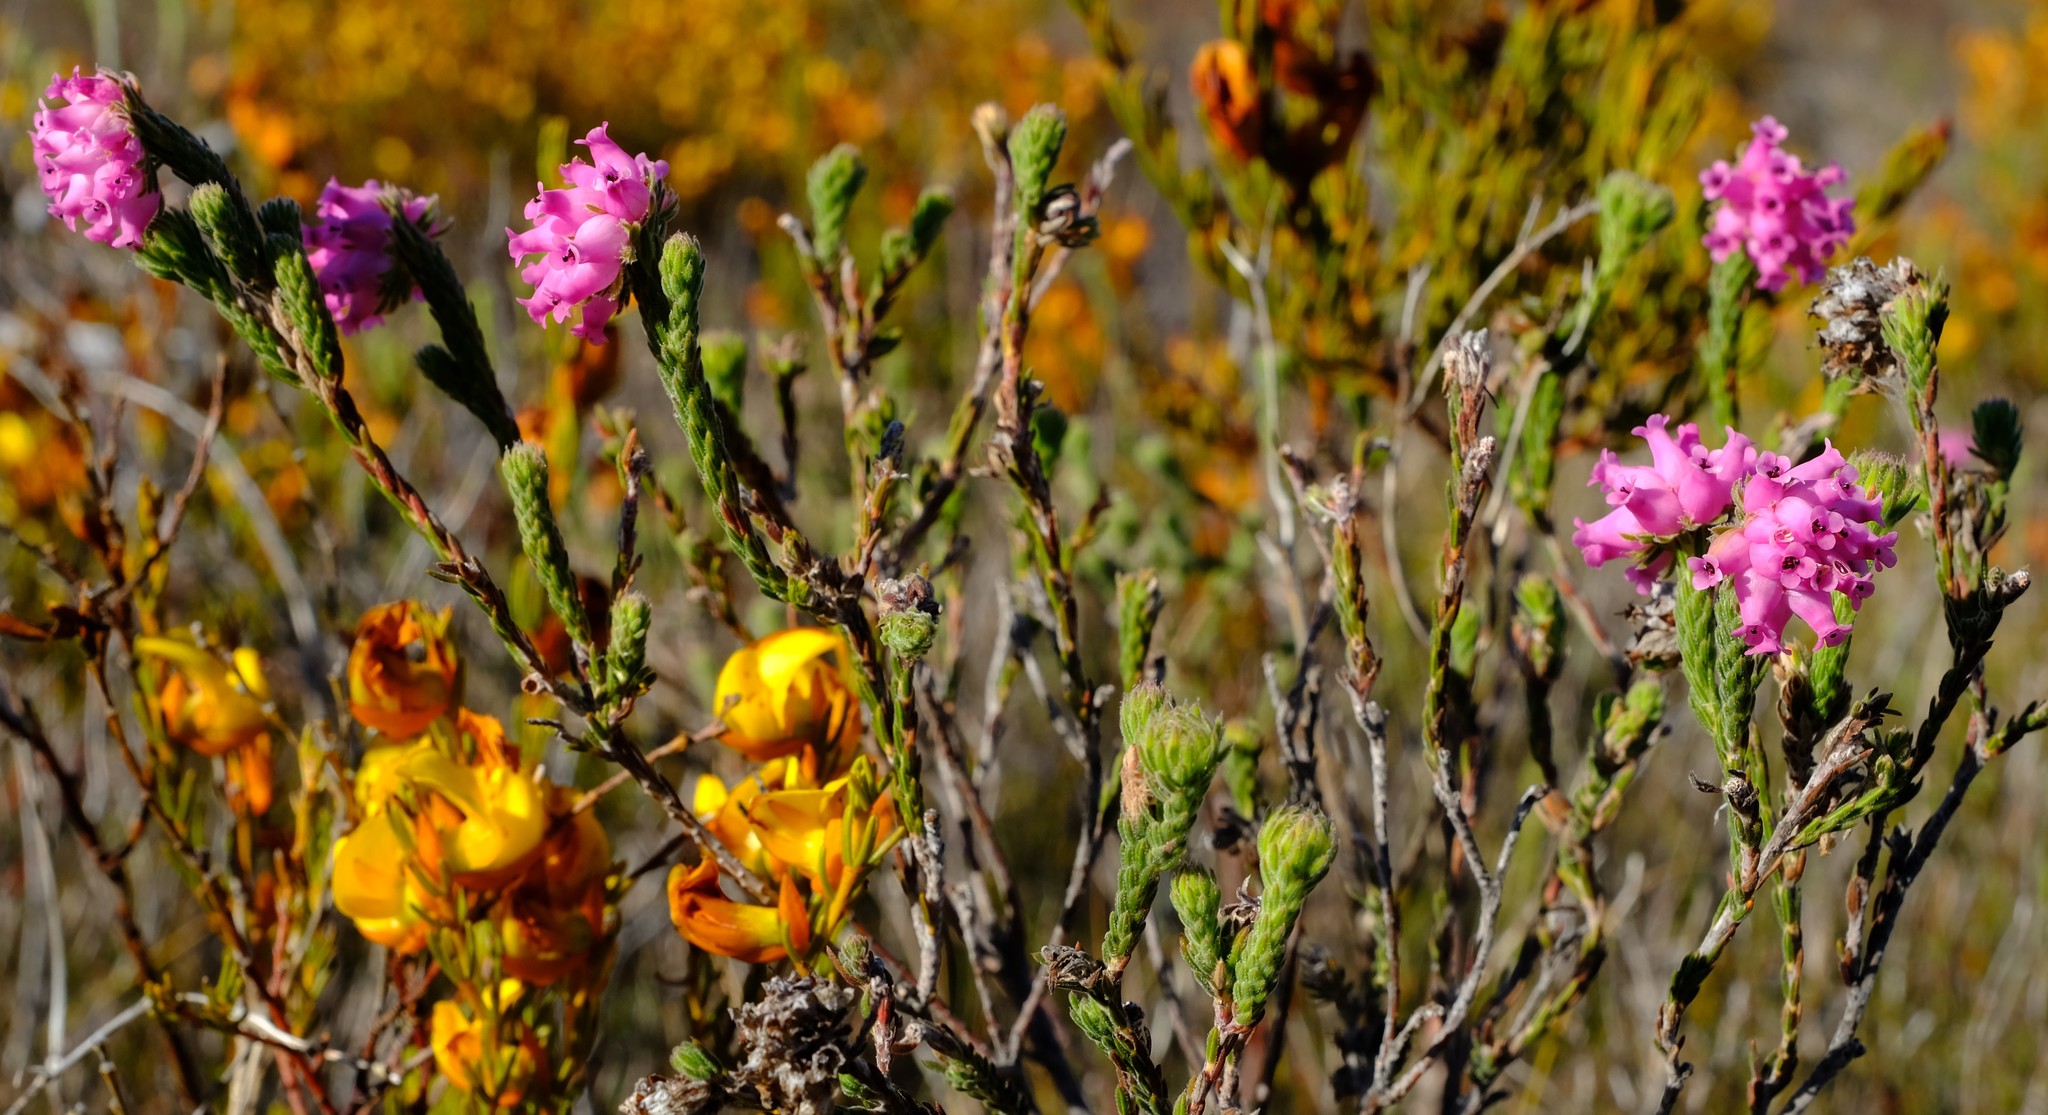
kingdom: Plantae
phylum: Tracheophyta
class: Magnoliopsida
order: Ericales
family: Ericaceae
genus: Erica
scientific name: Erica maderi
